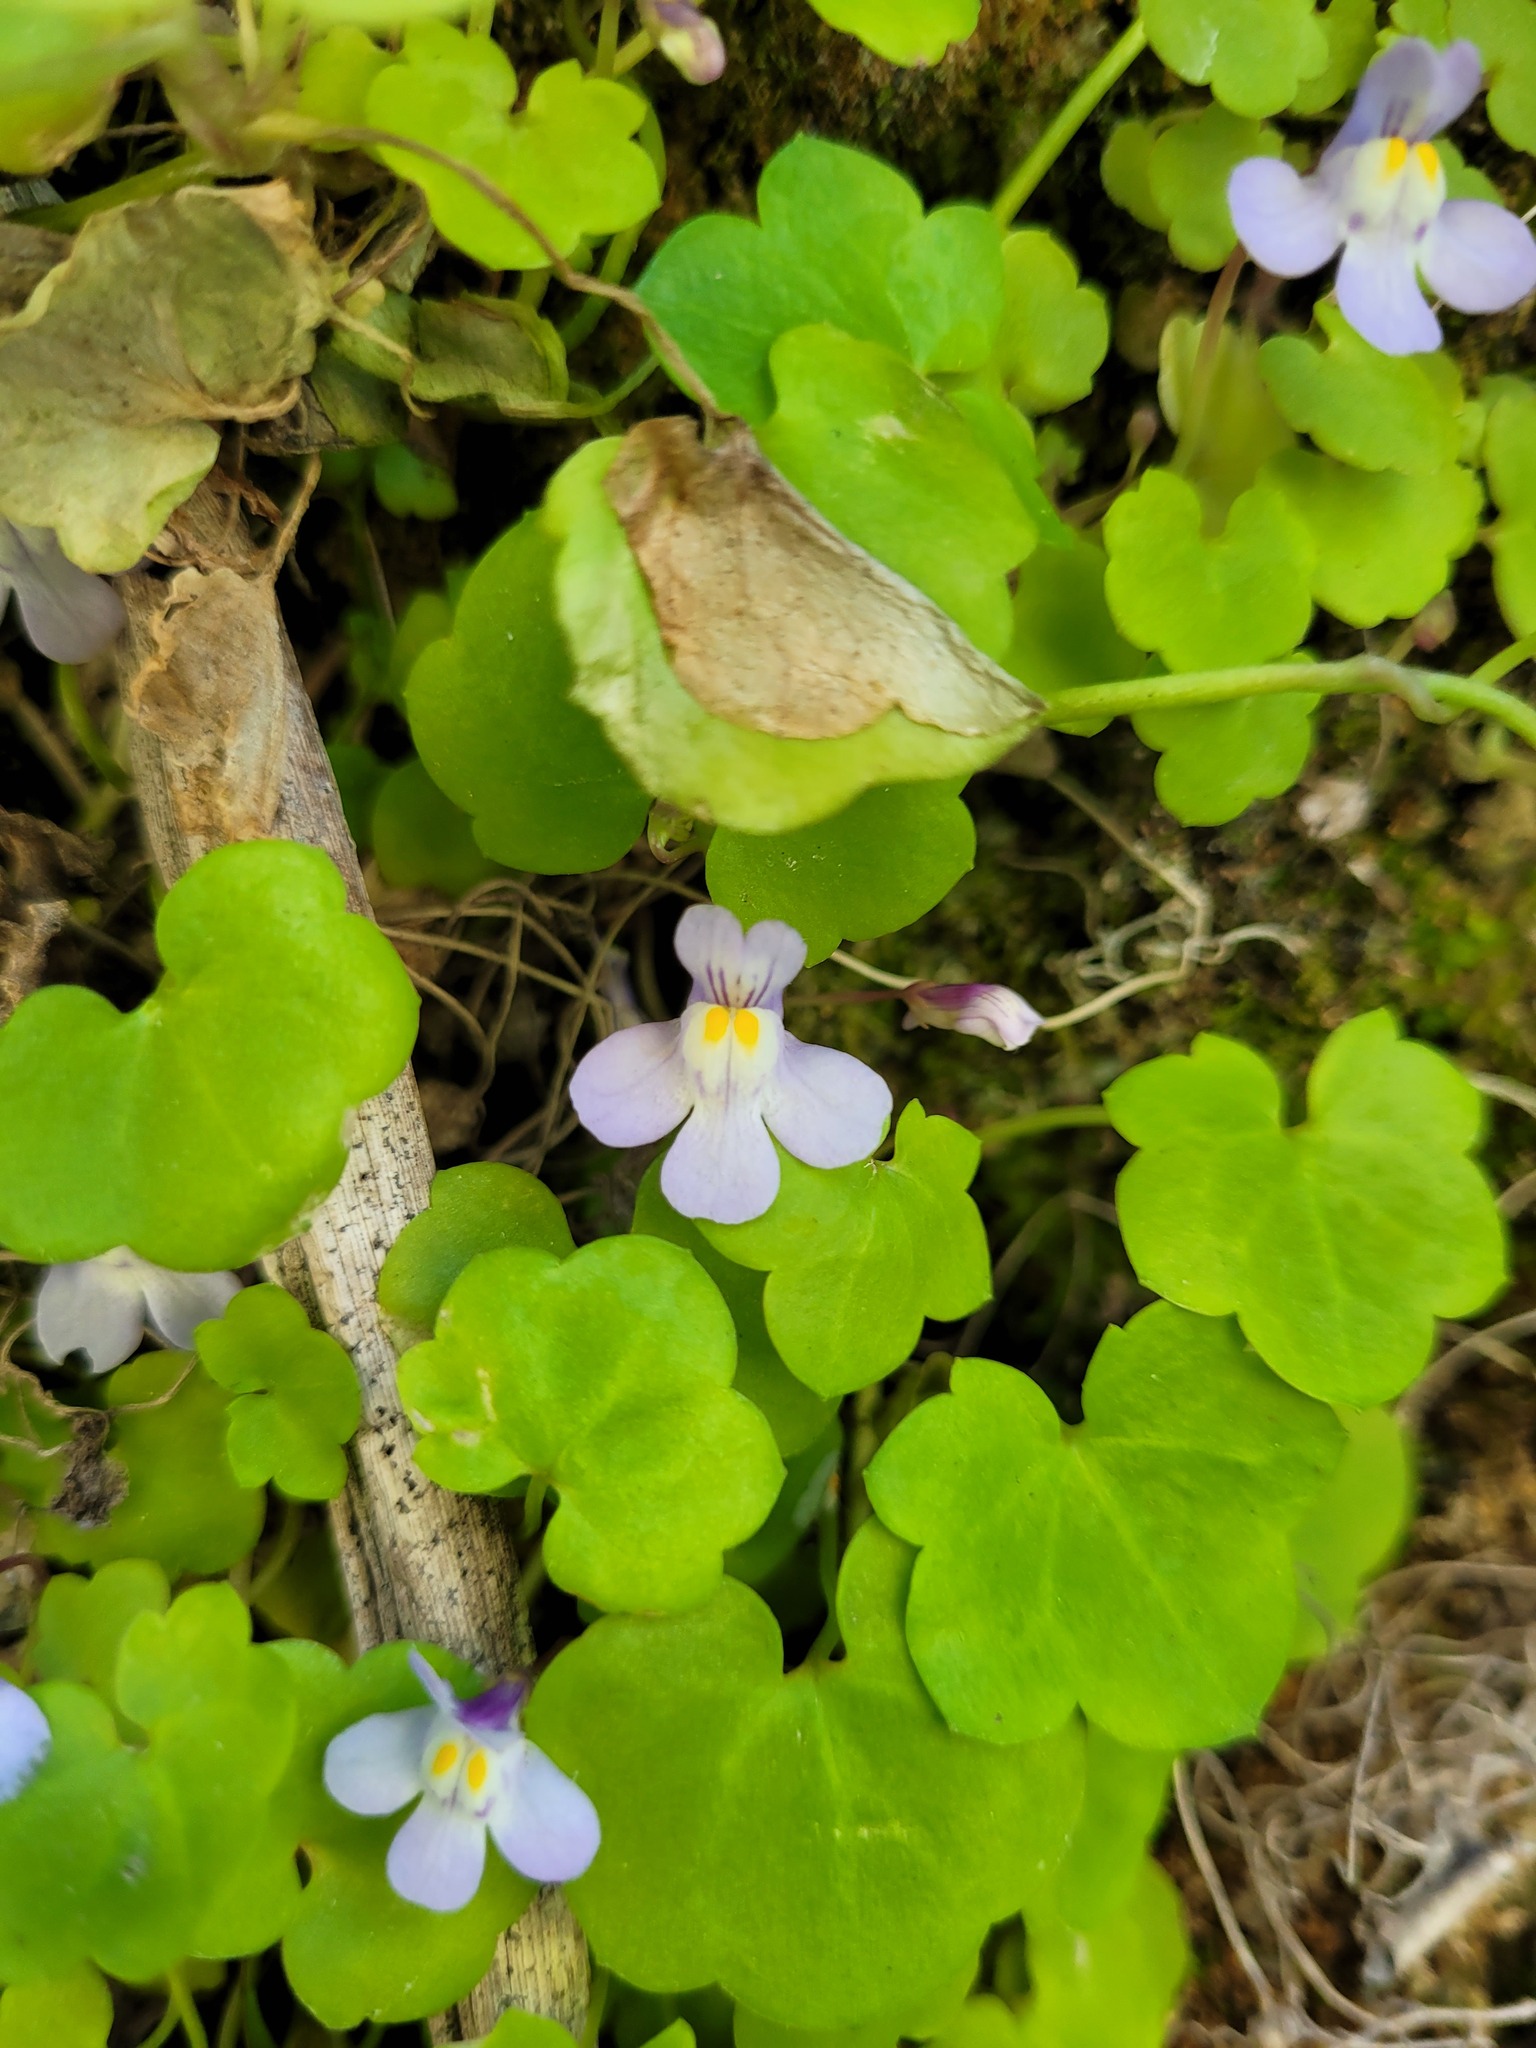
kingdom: Plantae
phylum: Tracheophyta
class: Magnoliopsida
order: Lamiales
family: Plantaginaceae
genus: Cymbalaria
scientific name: Cymbalaria muralis
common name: Ivy-leaved toadflax
